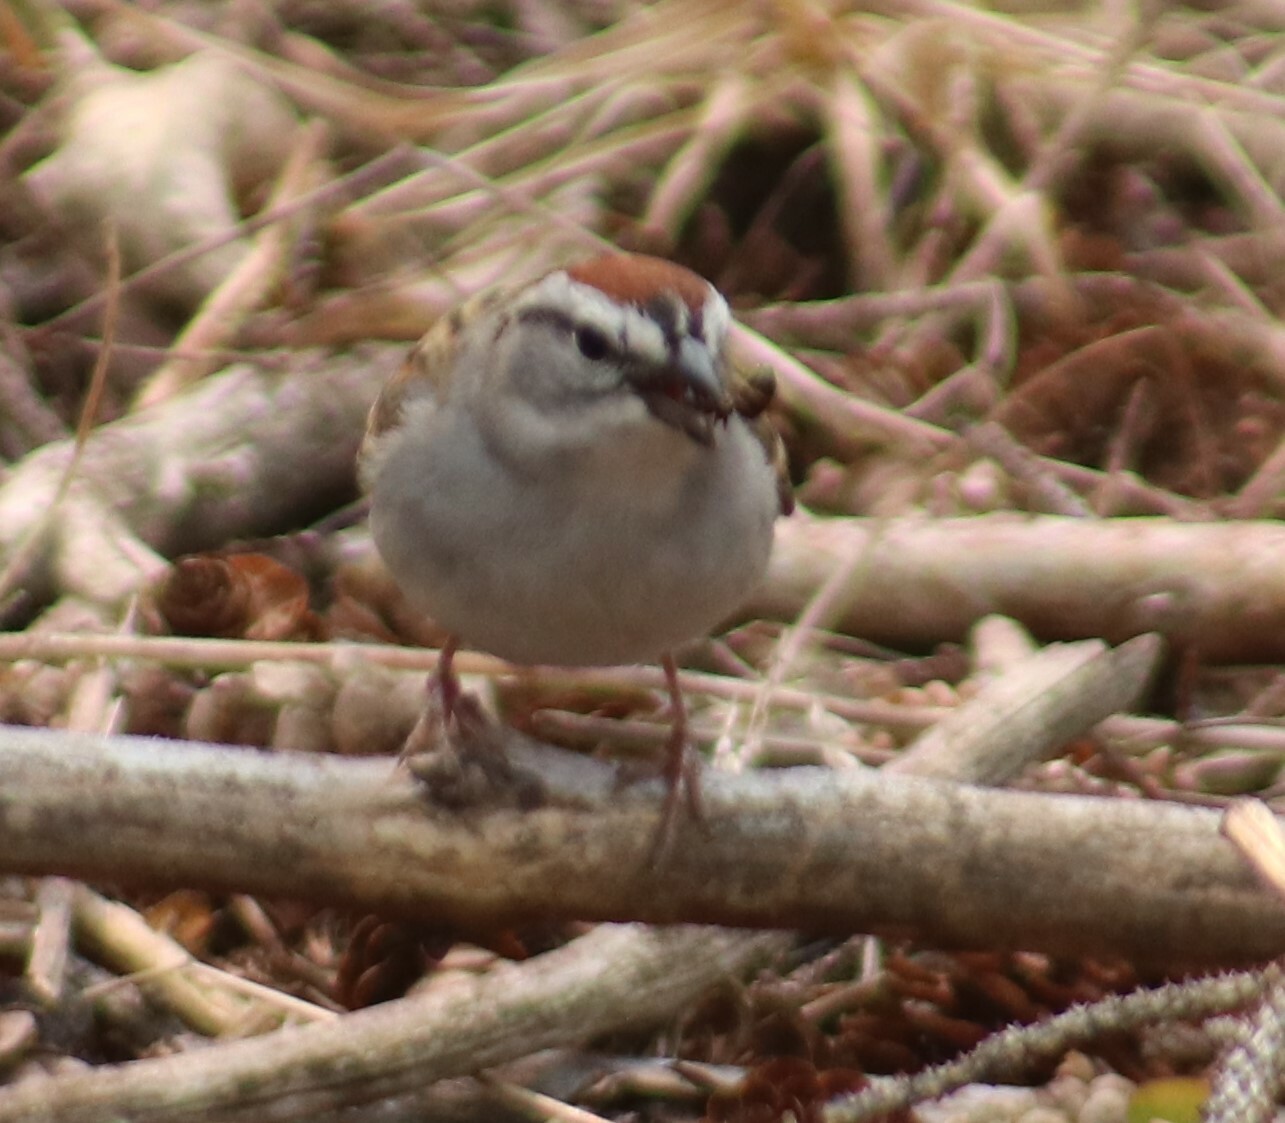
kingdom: Animalia
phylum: Chordata
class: Aves
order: Passeriformes
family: Passerellidae
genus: Spizella
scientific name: Spizella passerina
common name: Chipping sparrow
